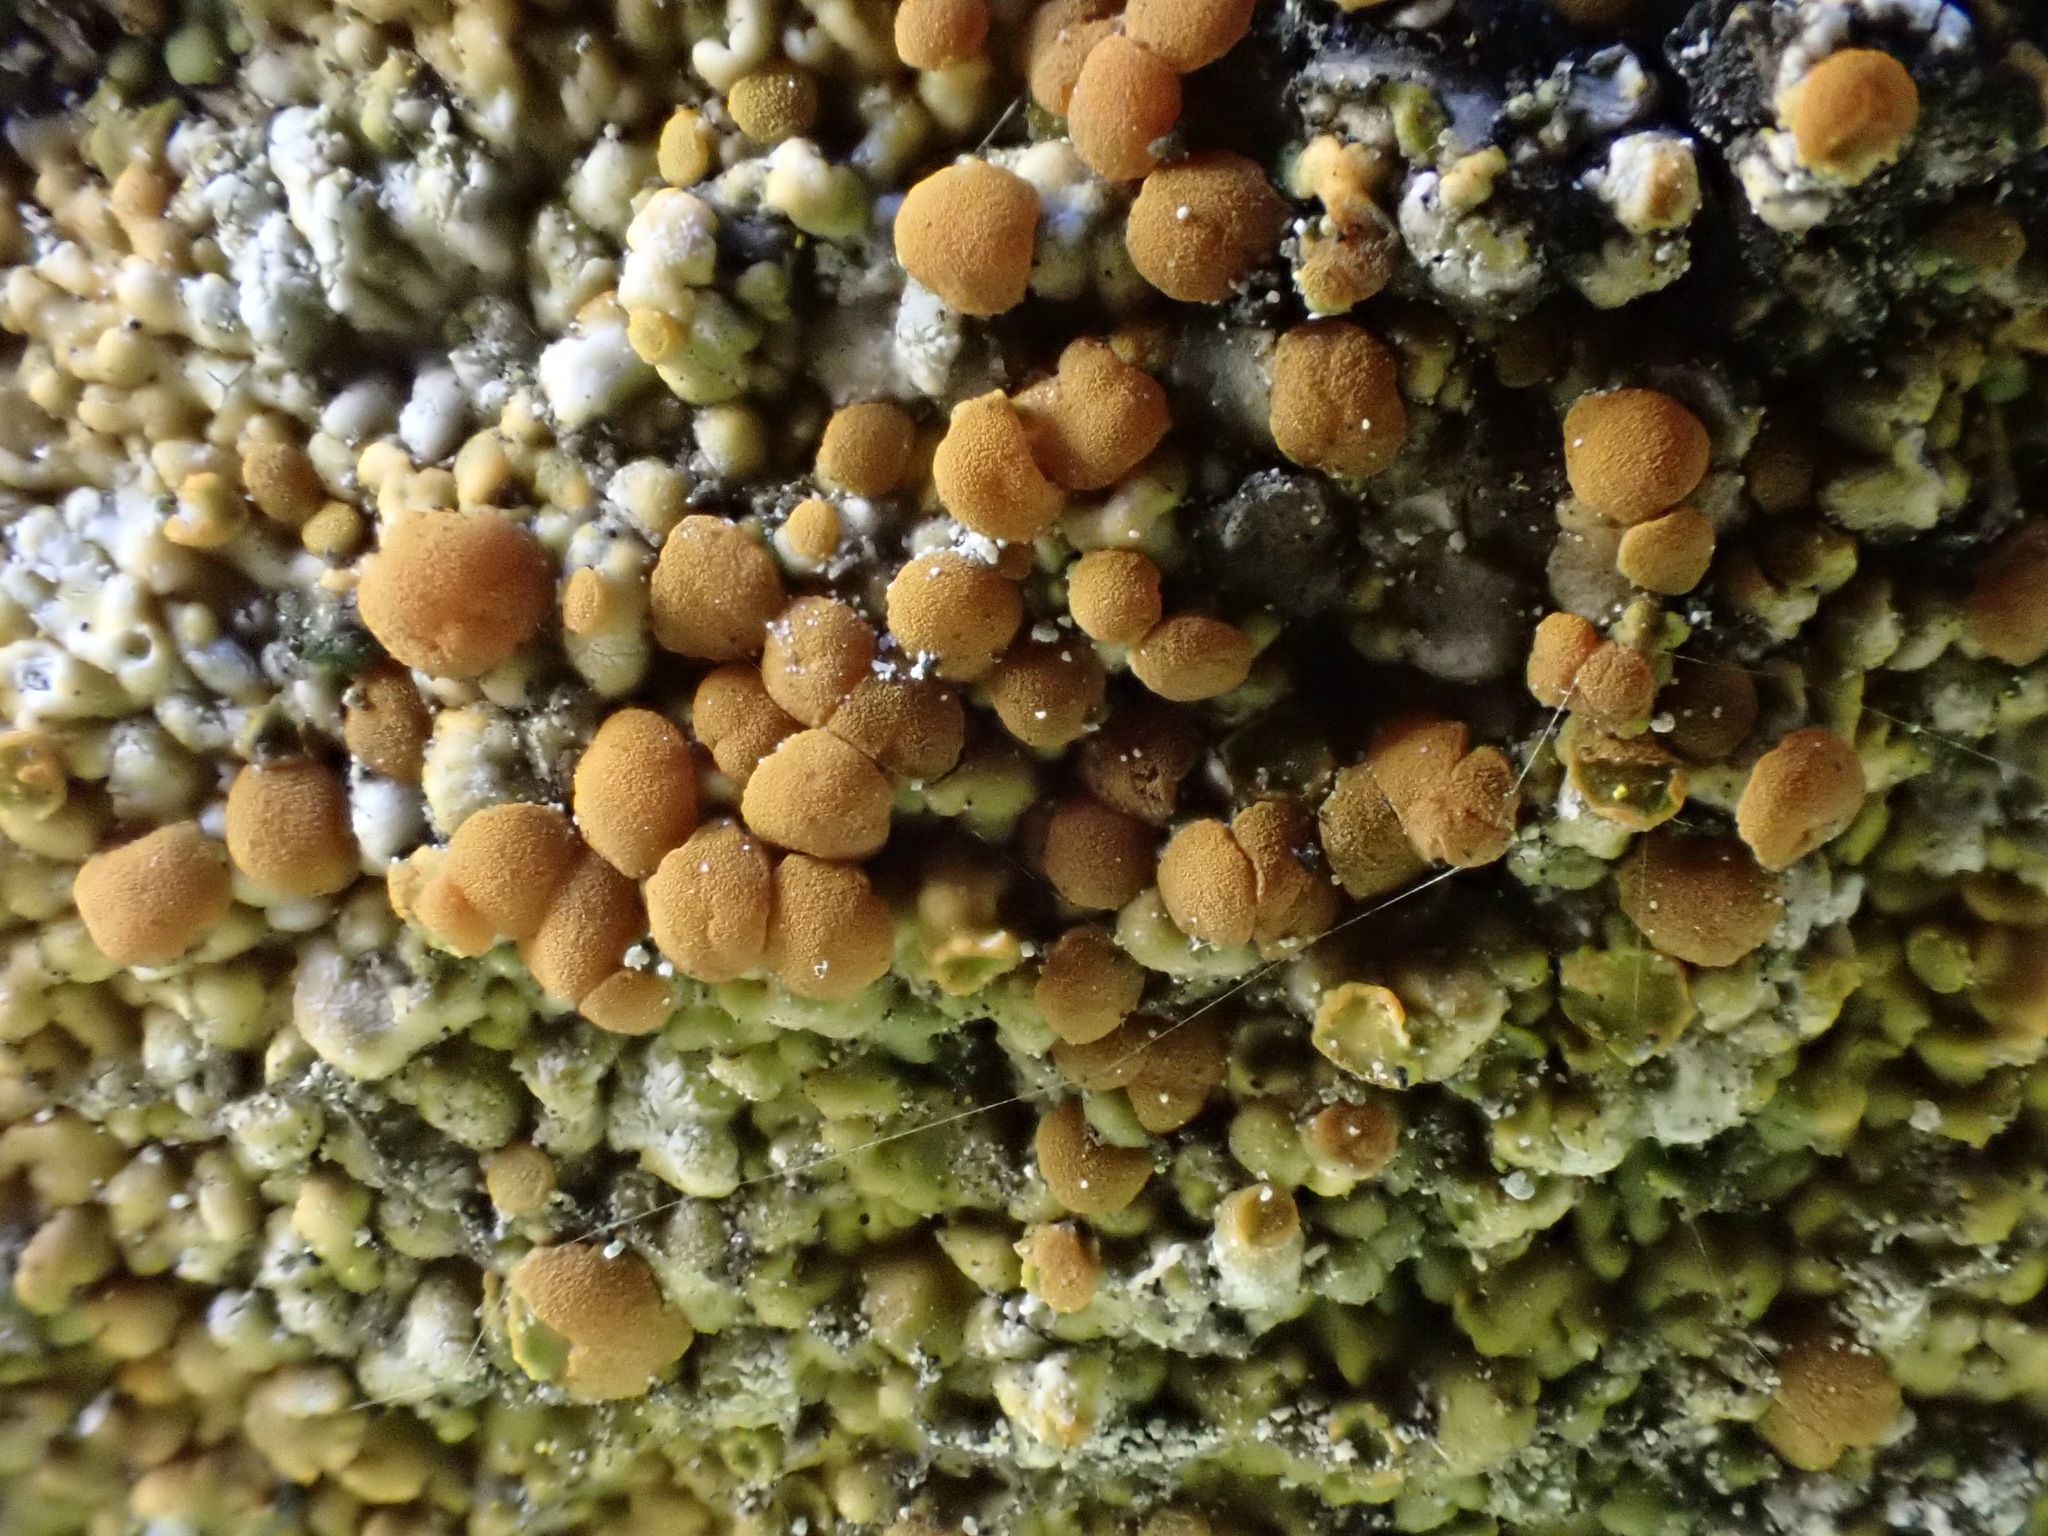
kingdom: Fungi
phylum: Ascomycota
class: Lecanoromycetes
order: Teloschistales
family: Teloschistaceae
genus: Variospora
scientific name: Variospora flavescens
